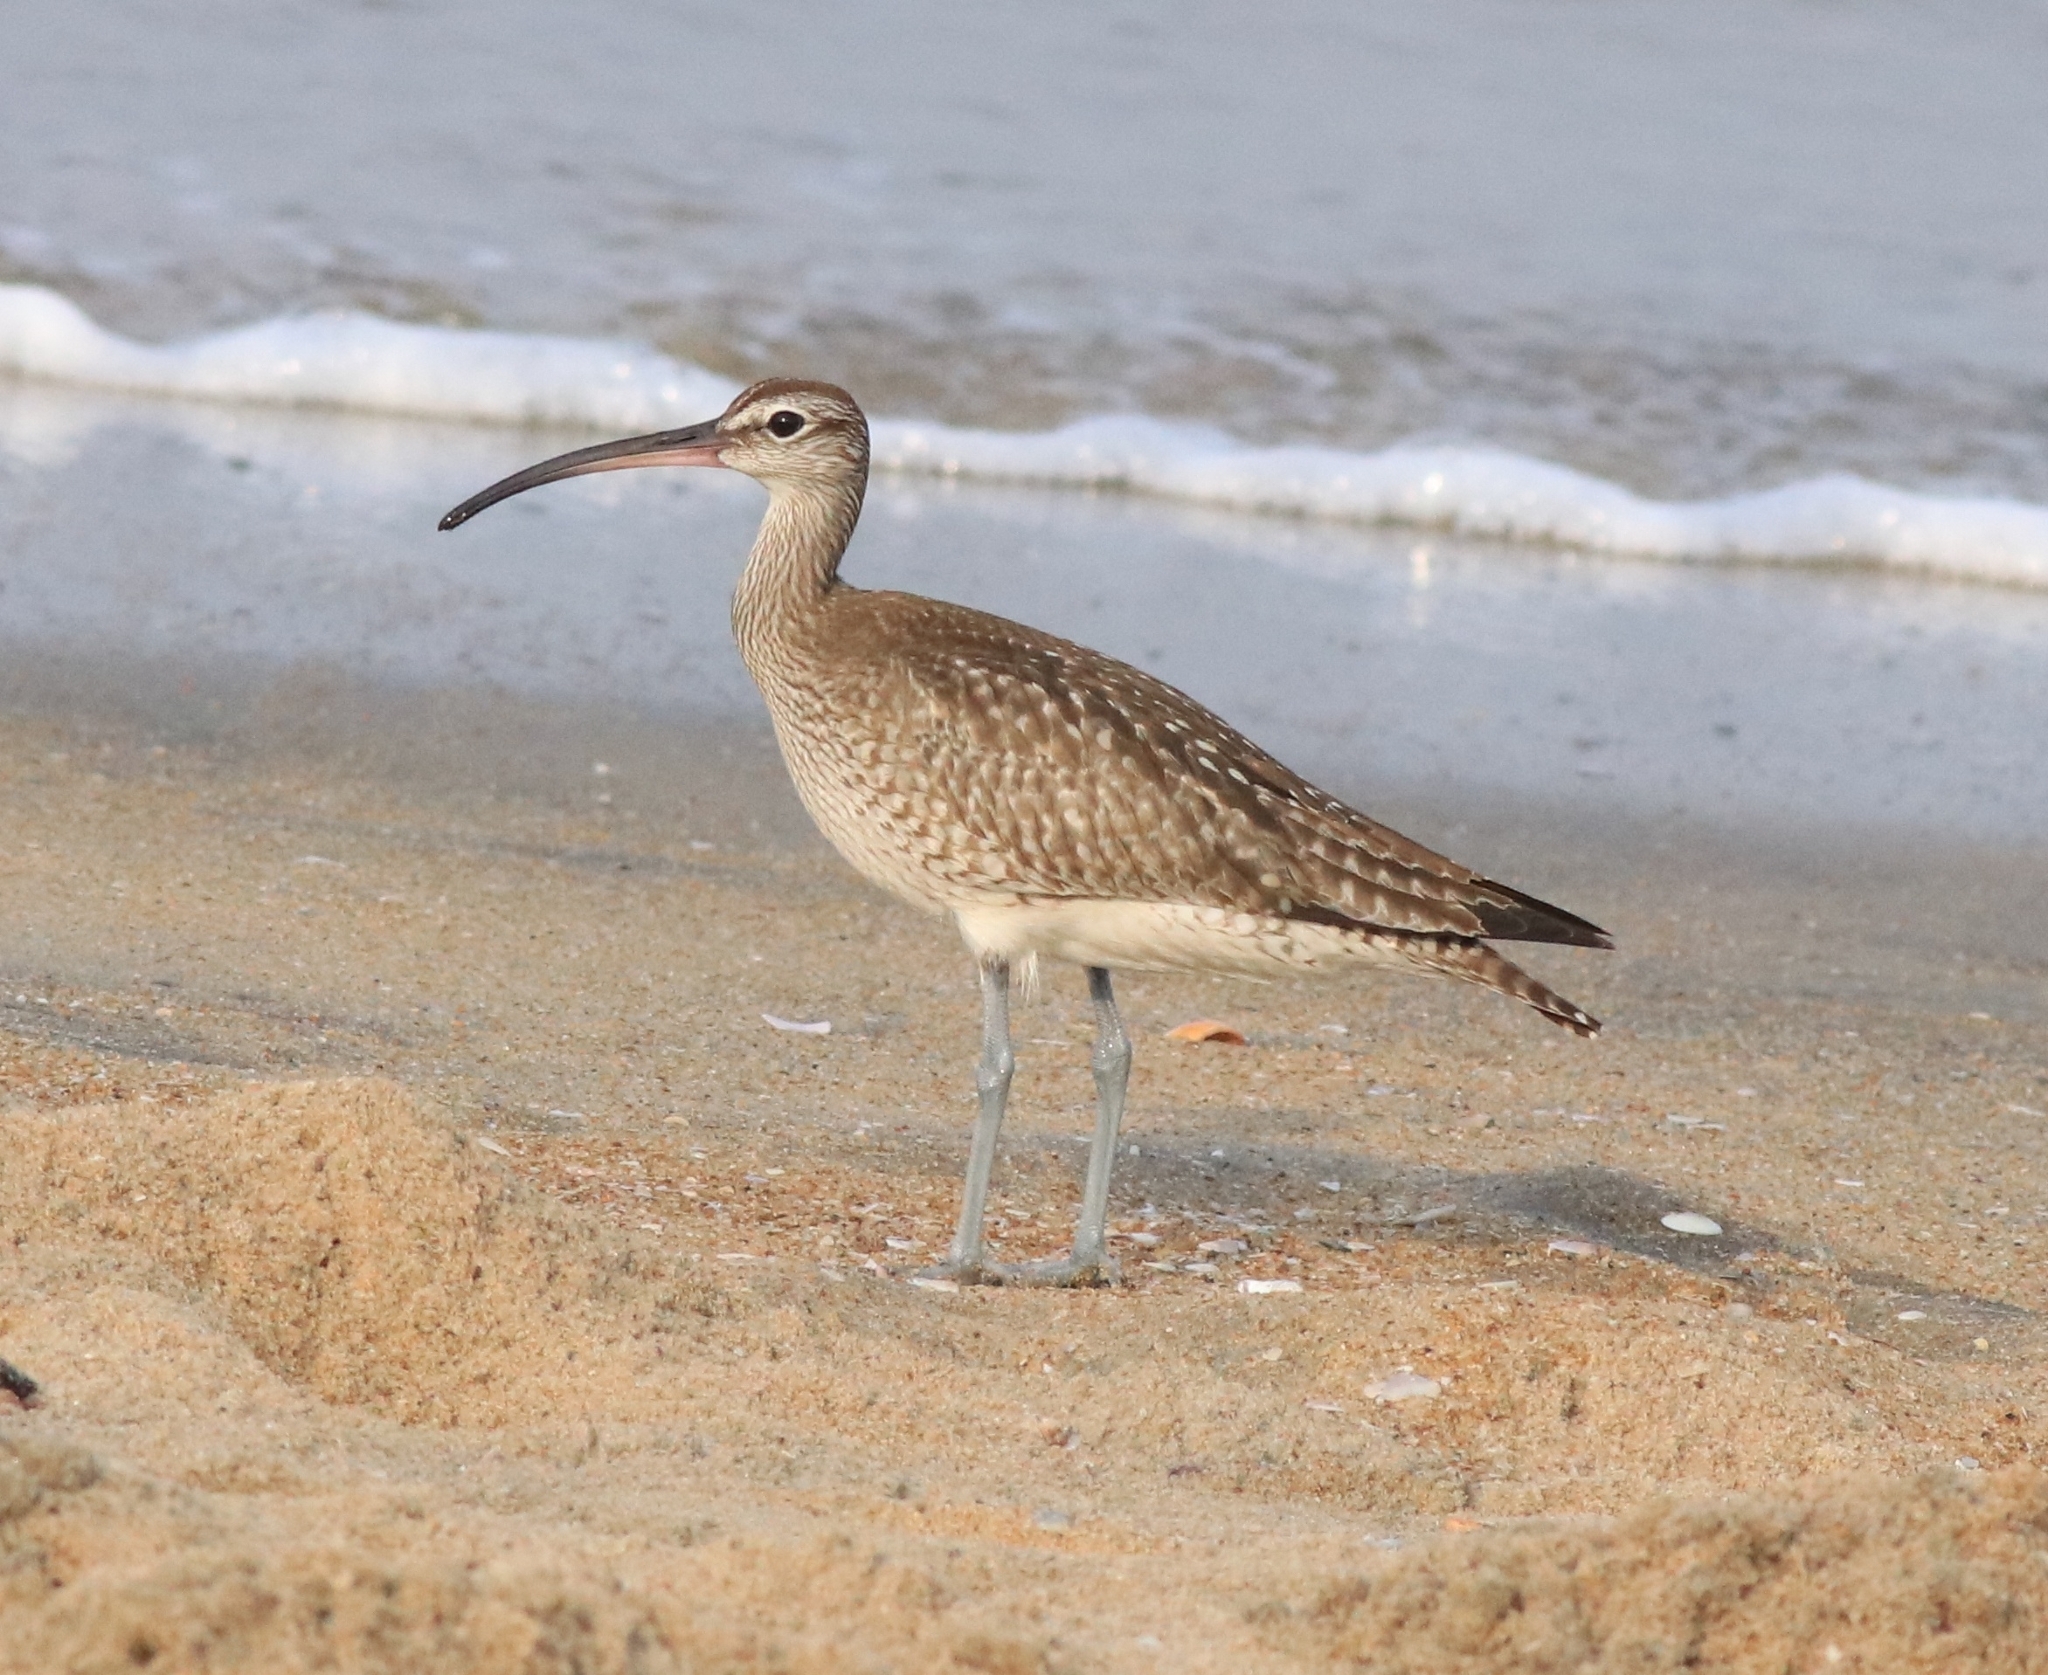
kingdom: Animalia
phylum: Chordata
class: Aves
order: Charadriiformes
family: Scolopacidae
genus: Numenius
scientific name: Numenius phaeopus
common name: Whimbrel
